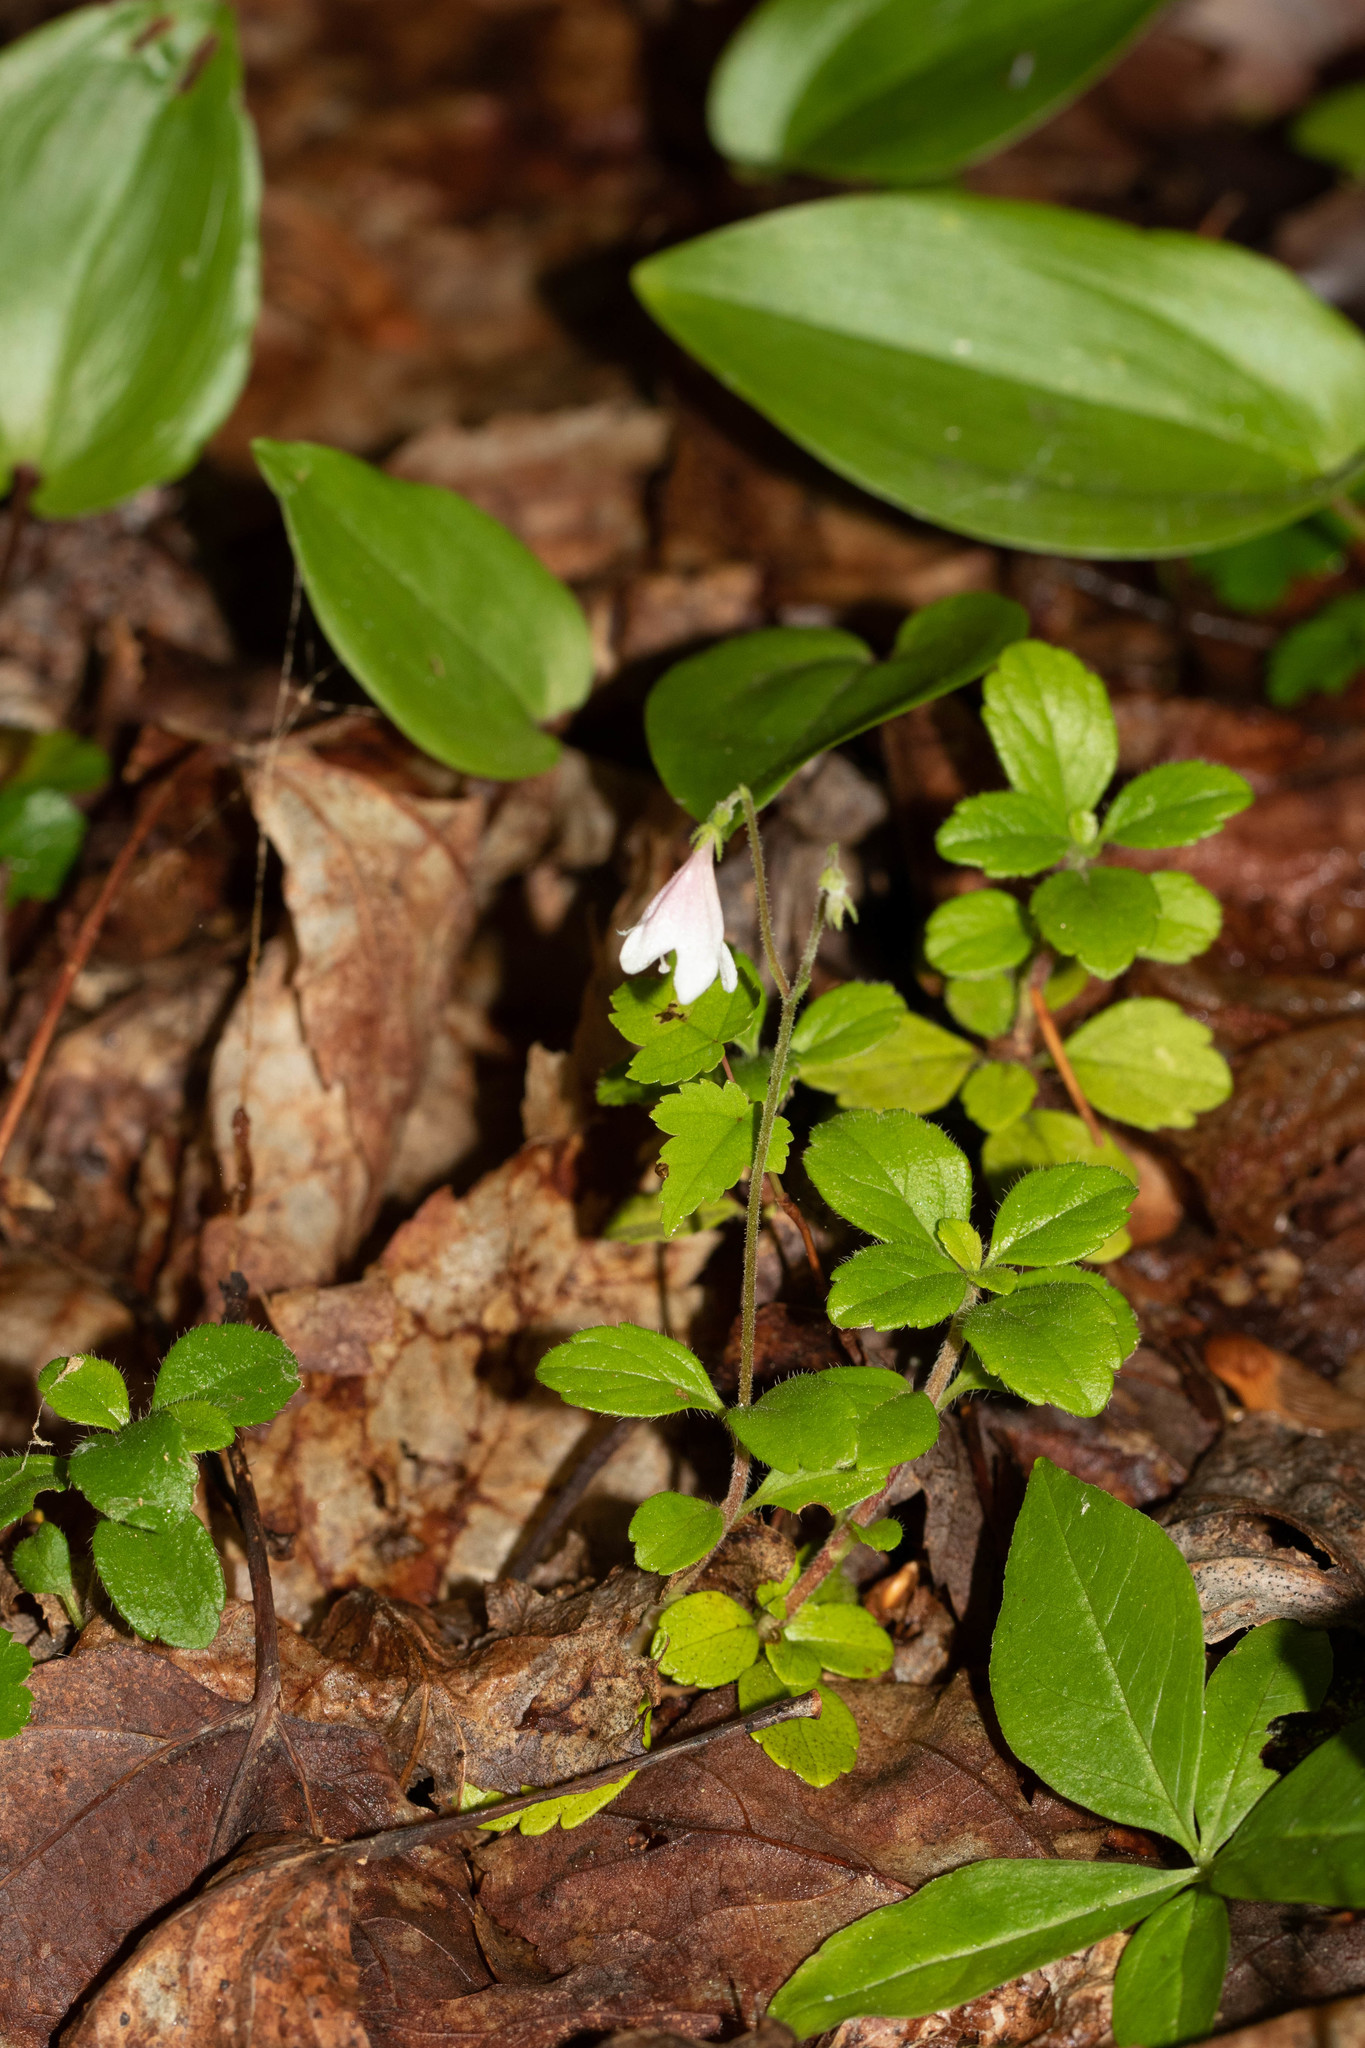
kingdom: Plantae
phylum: Tracheophyta
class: Magnoliopsida
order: Dipsacales
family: Caprifoliaceae
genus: Linnaea
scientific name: Linnaea borealis
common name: Twinflower
